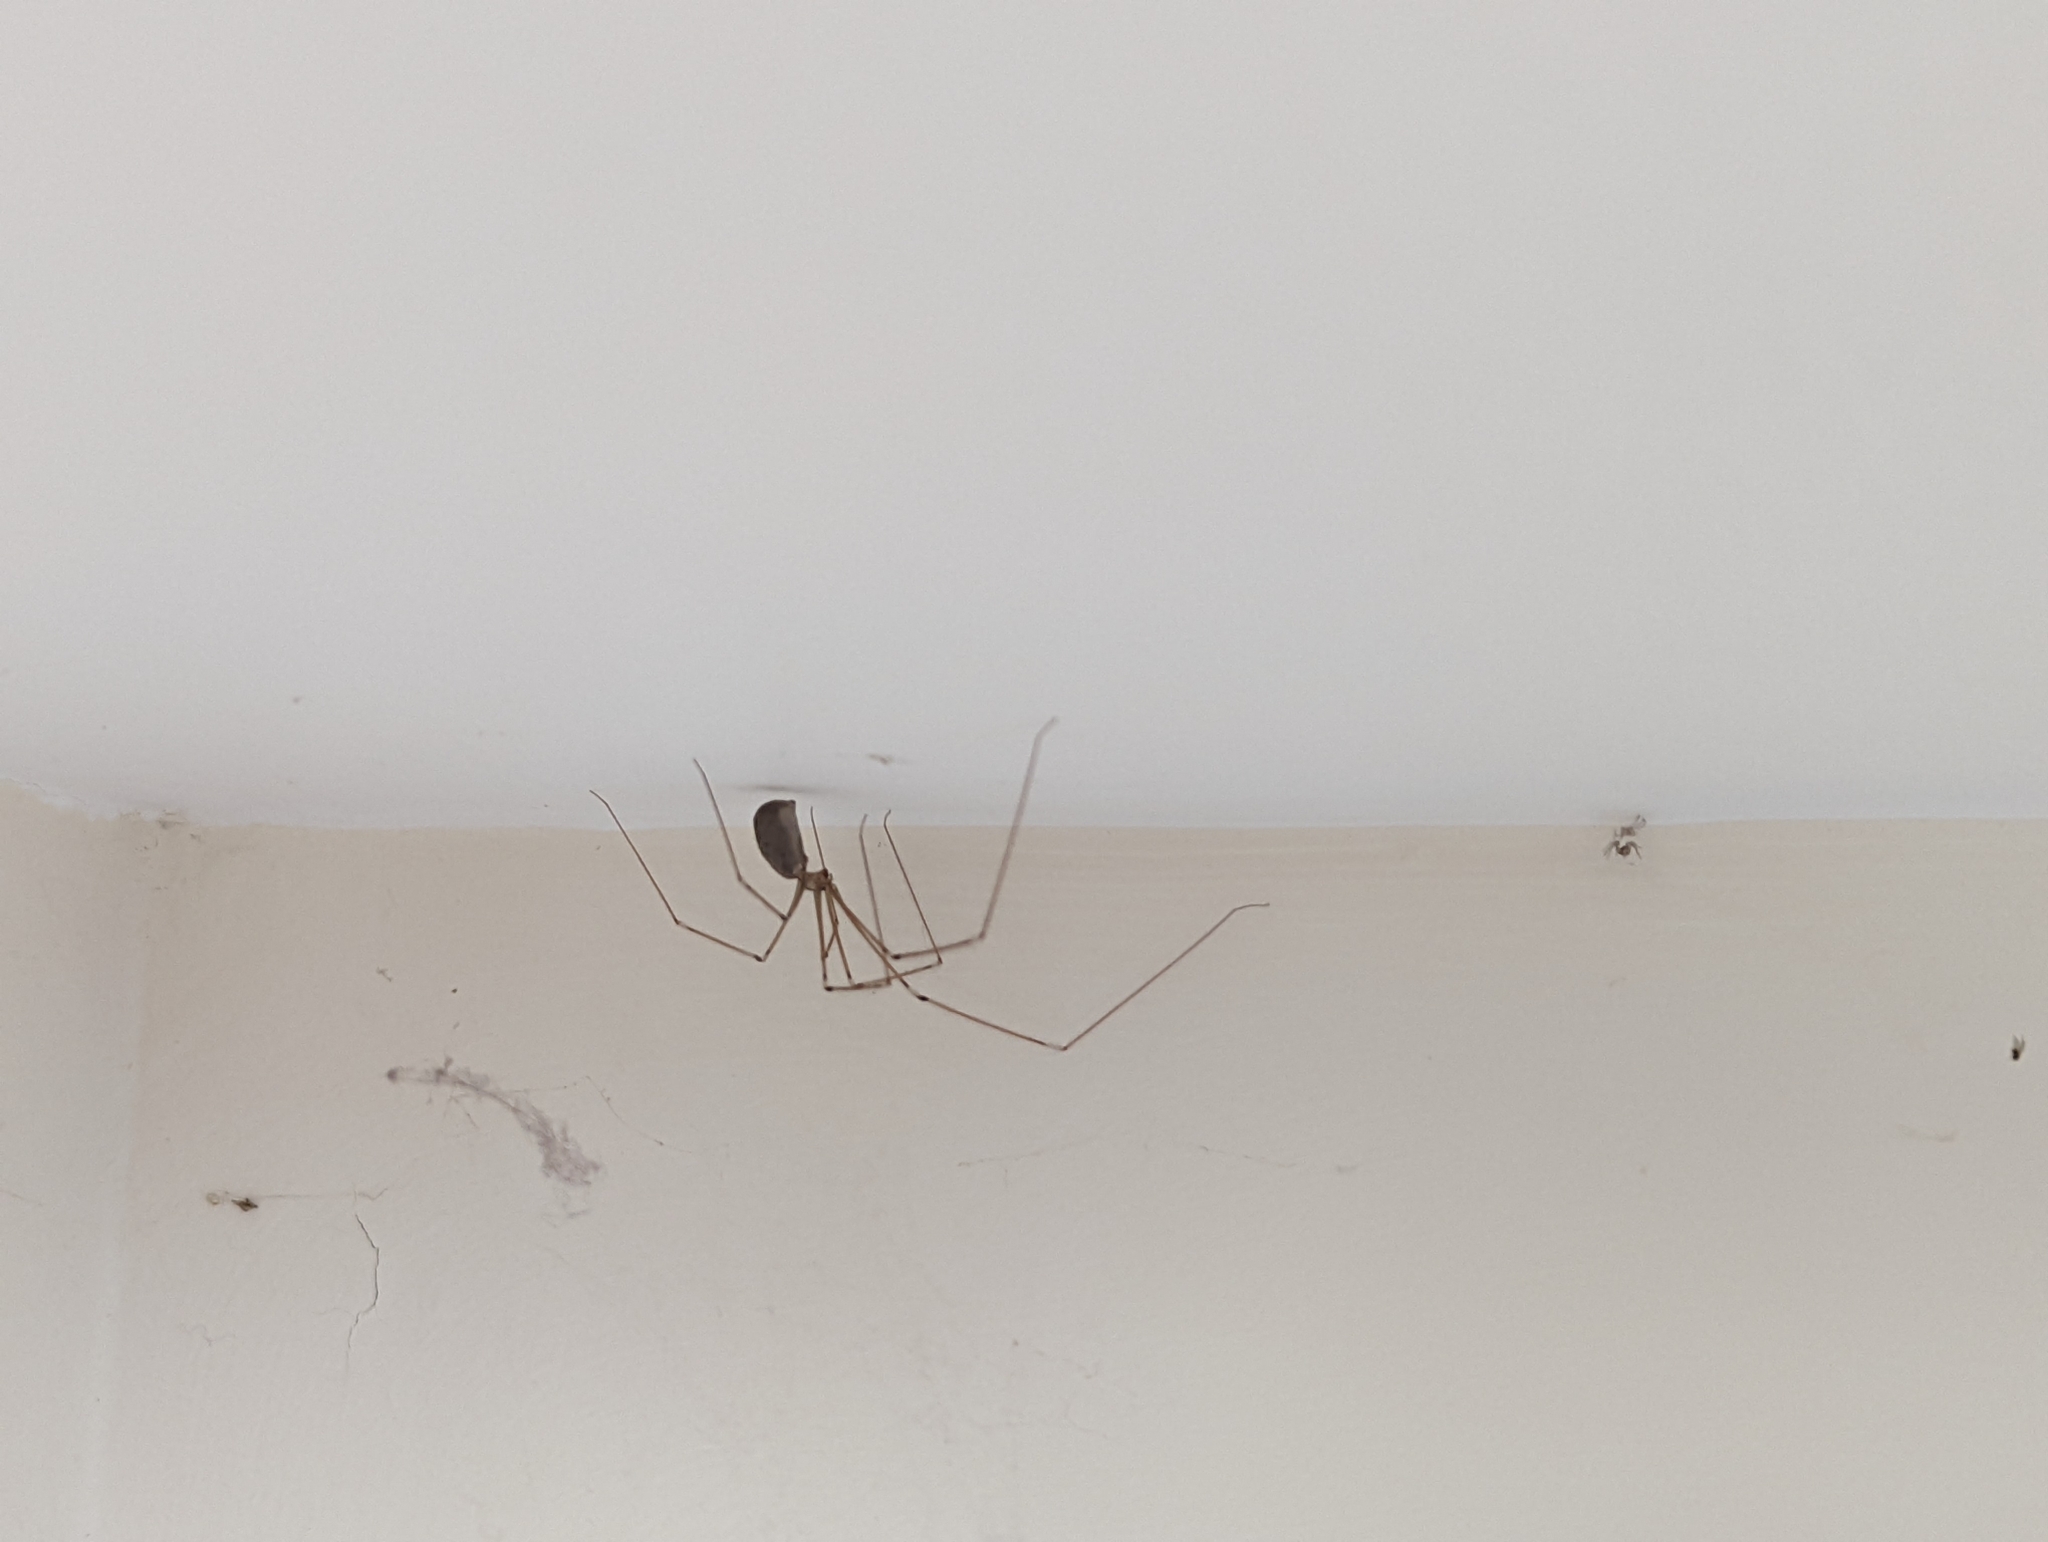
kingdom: Animalia
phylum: Arthropoda
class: Arachnida
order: Araneae
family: Pholcidae
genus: Pholcus
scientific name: Pholcus phalangioides
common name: Longbodied cellar spider
